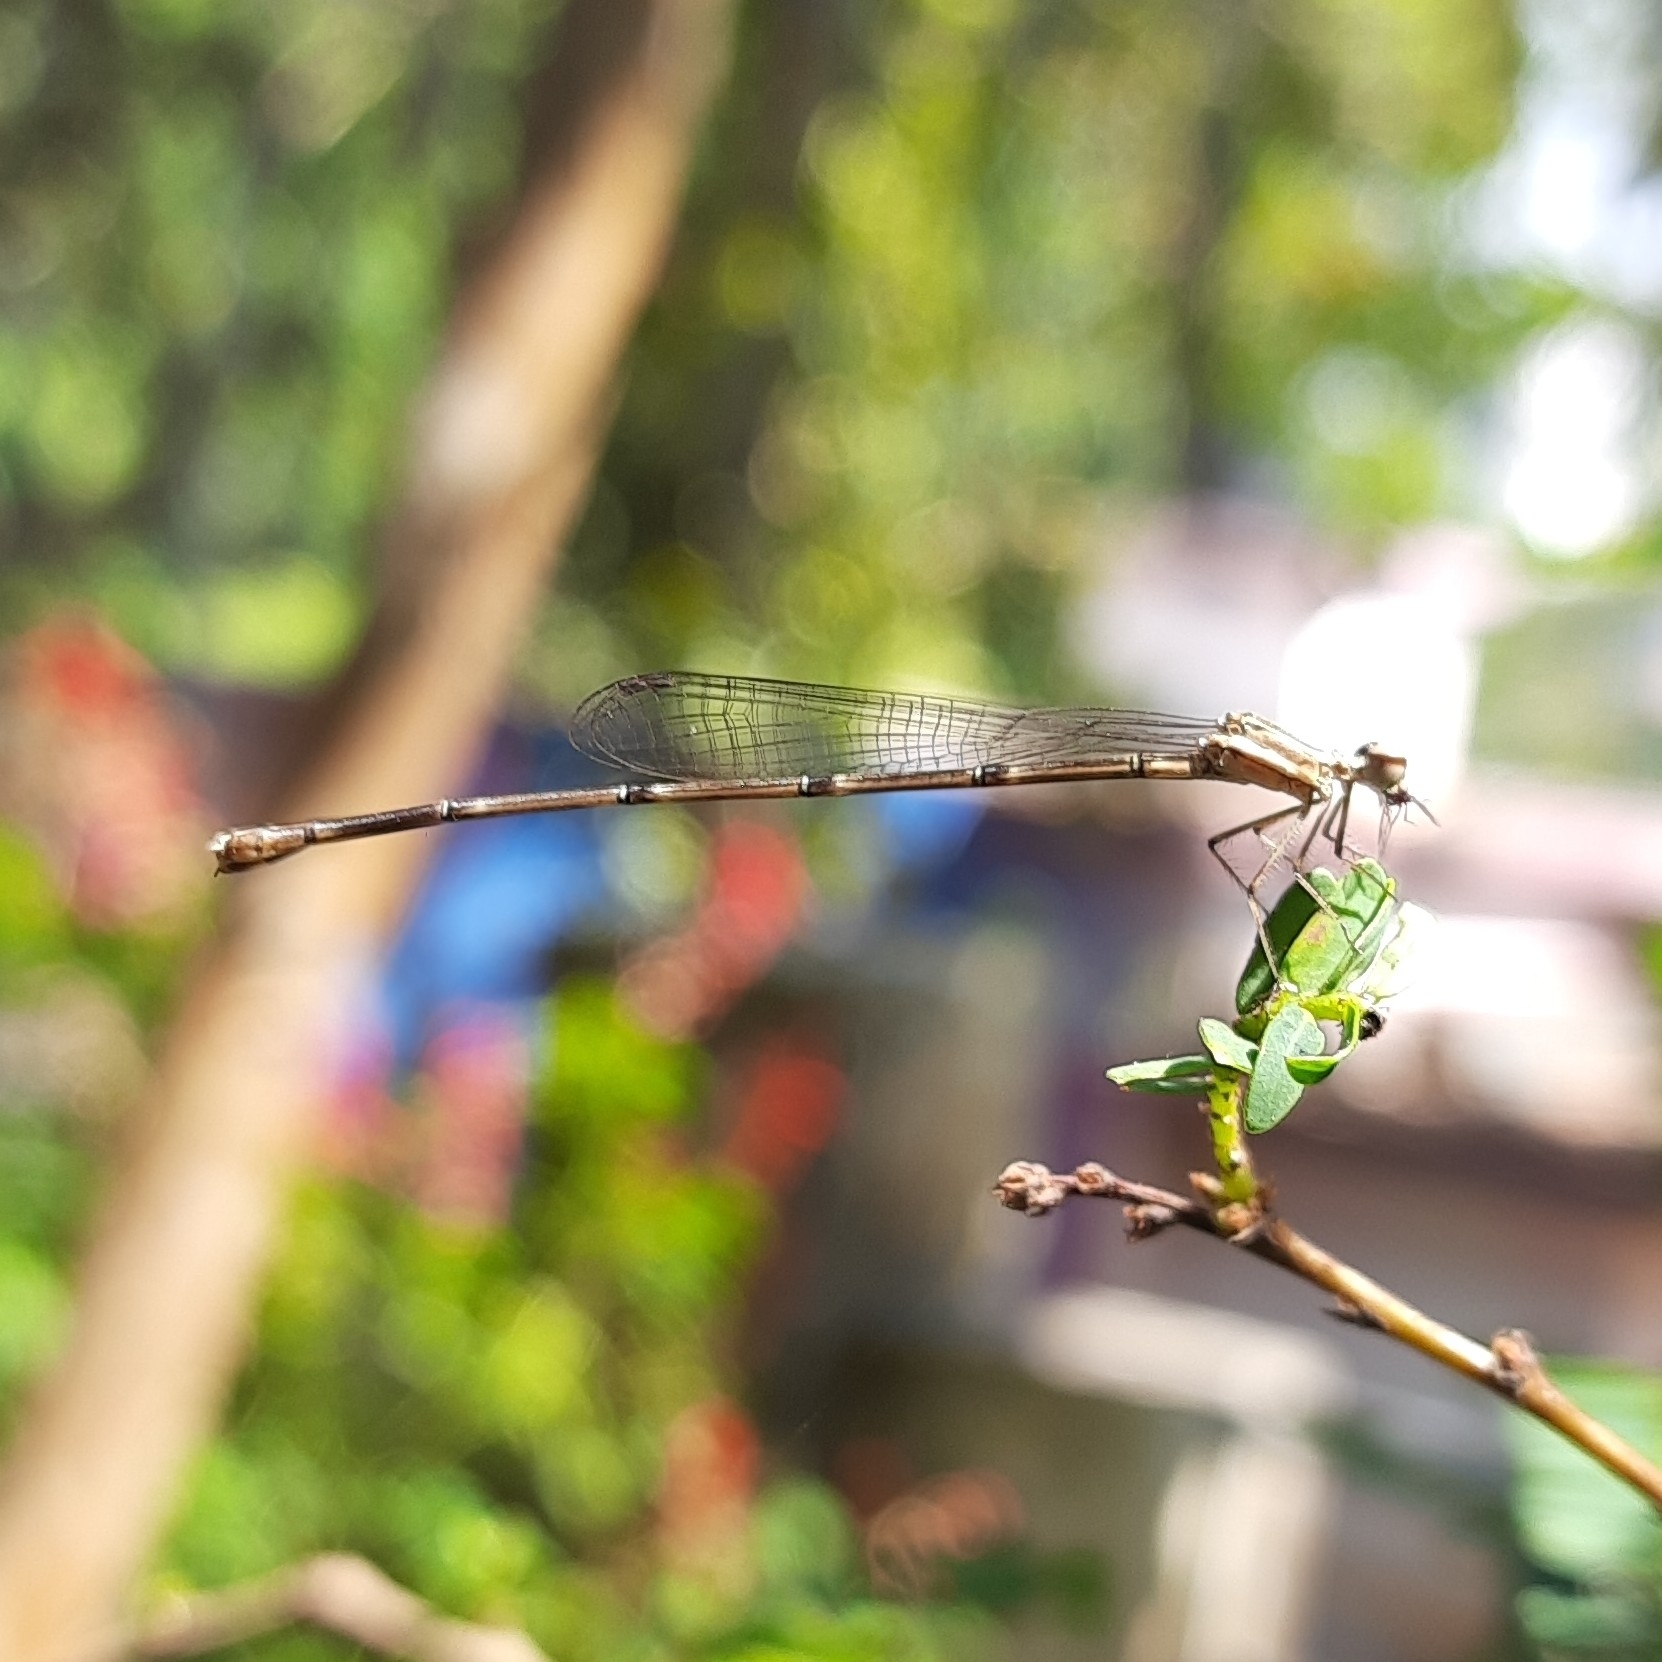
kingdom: Animalia
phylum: Arthropoda
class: Insecta
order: Odonata
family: Platycnemididae
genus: Prodasineura
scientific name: Prodasineura verticalis
